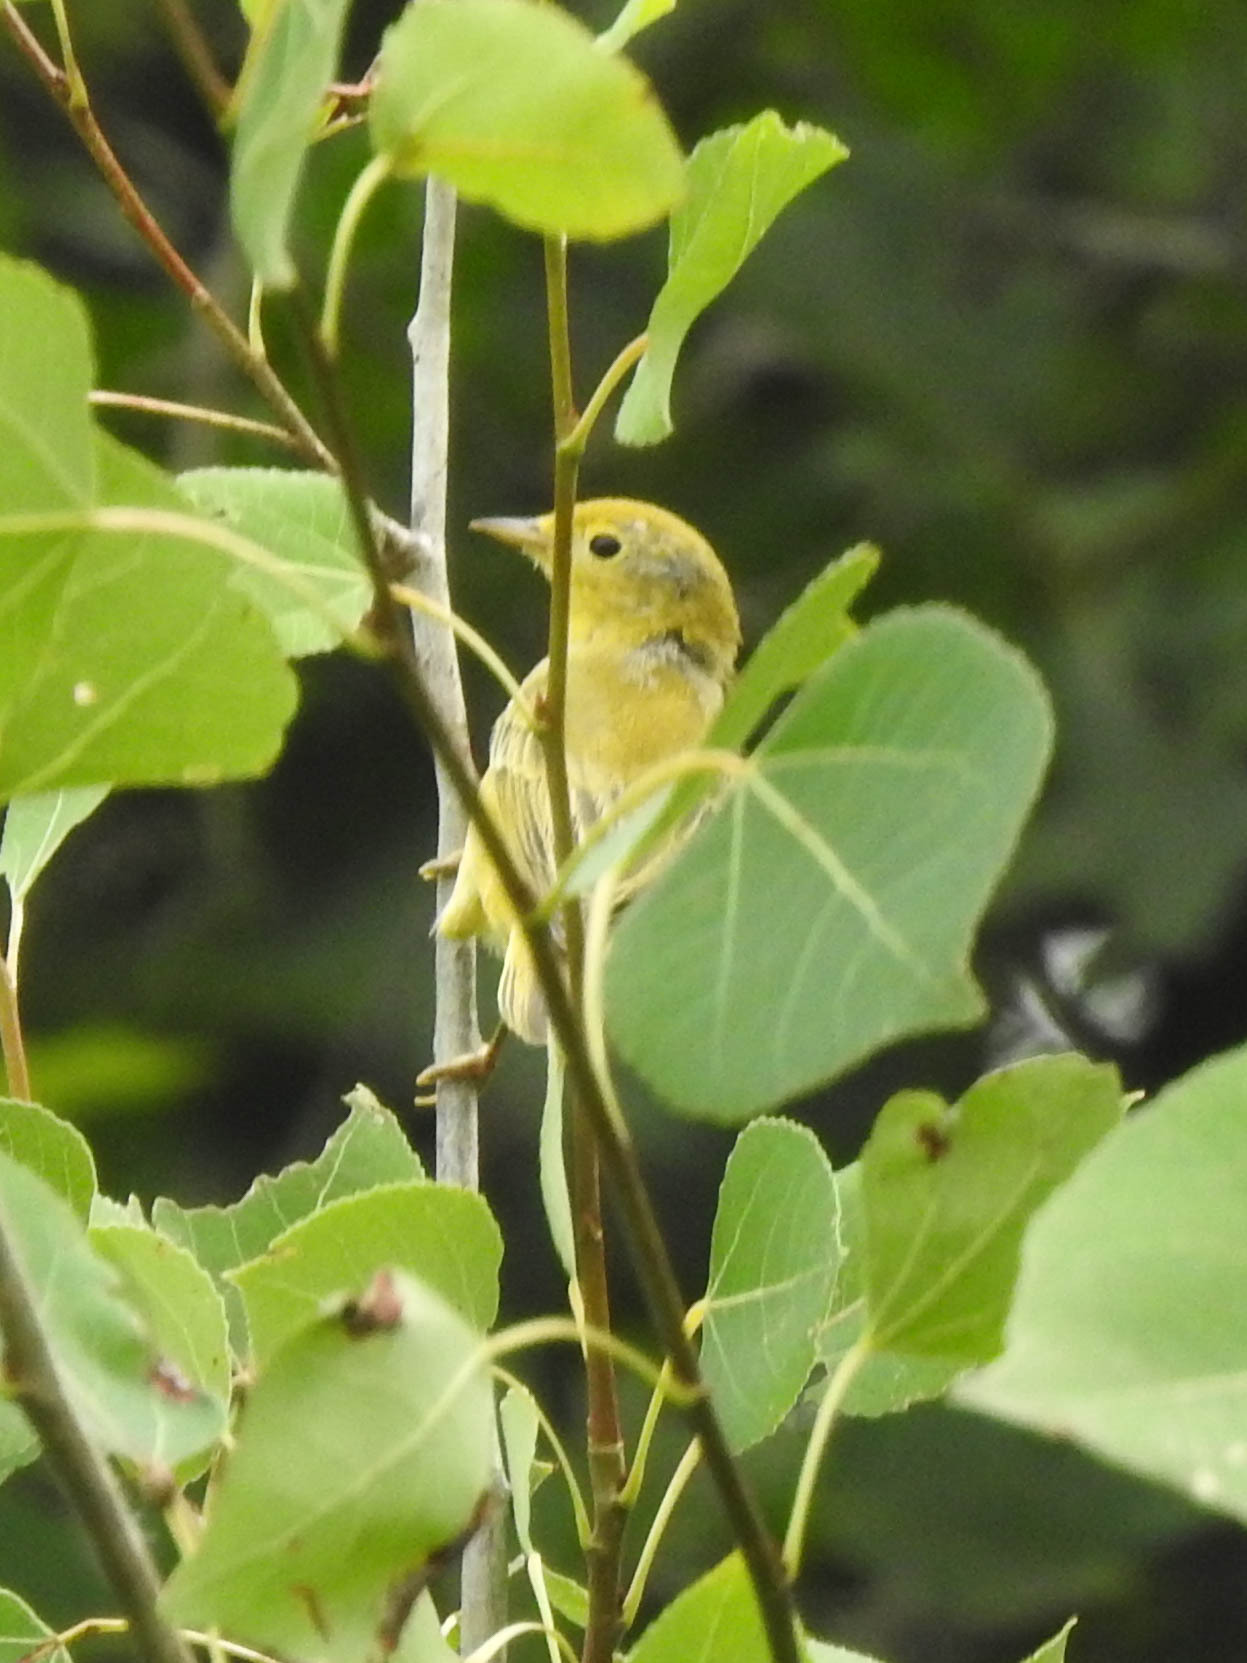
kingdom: Animalia
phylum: Chordata
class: Aves
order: Passeriformes
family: Parulidae
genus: Setophaga
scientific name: Setophaga petechia
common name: Yellow warbler
